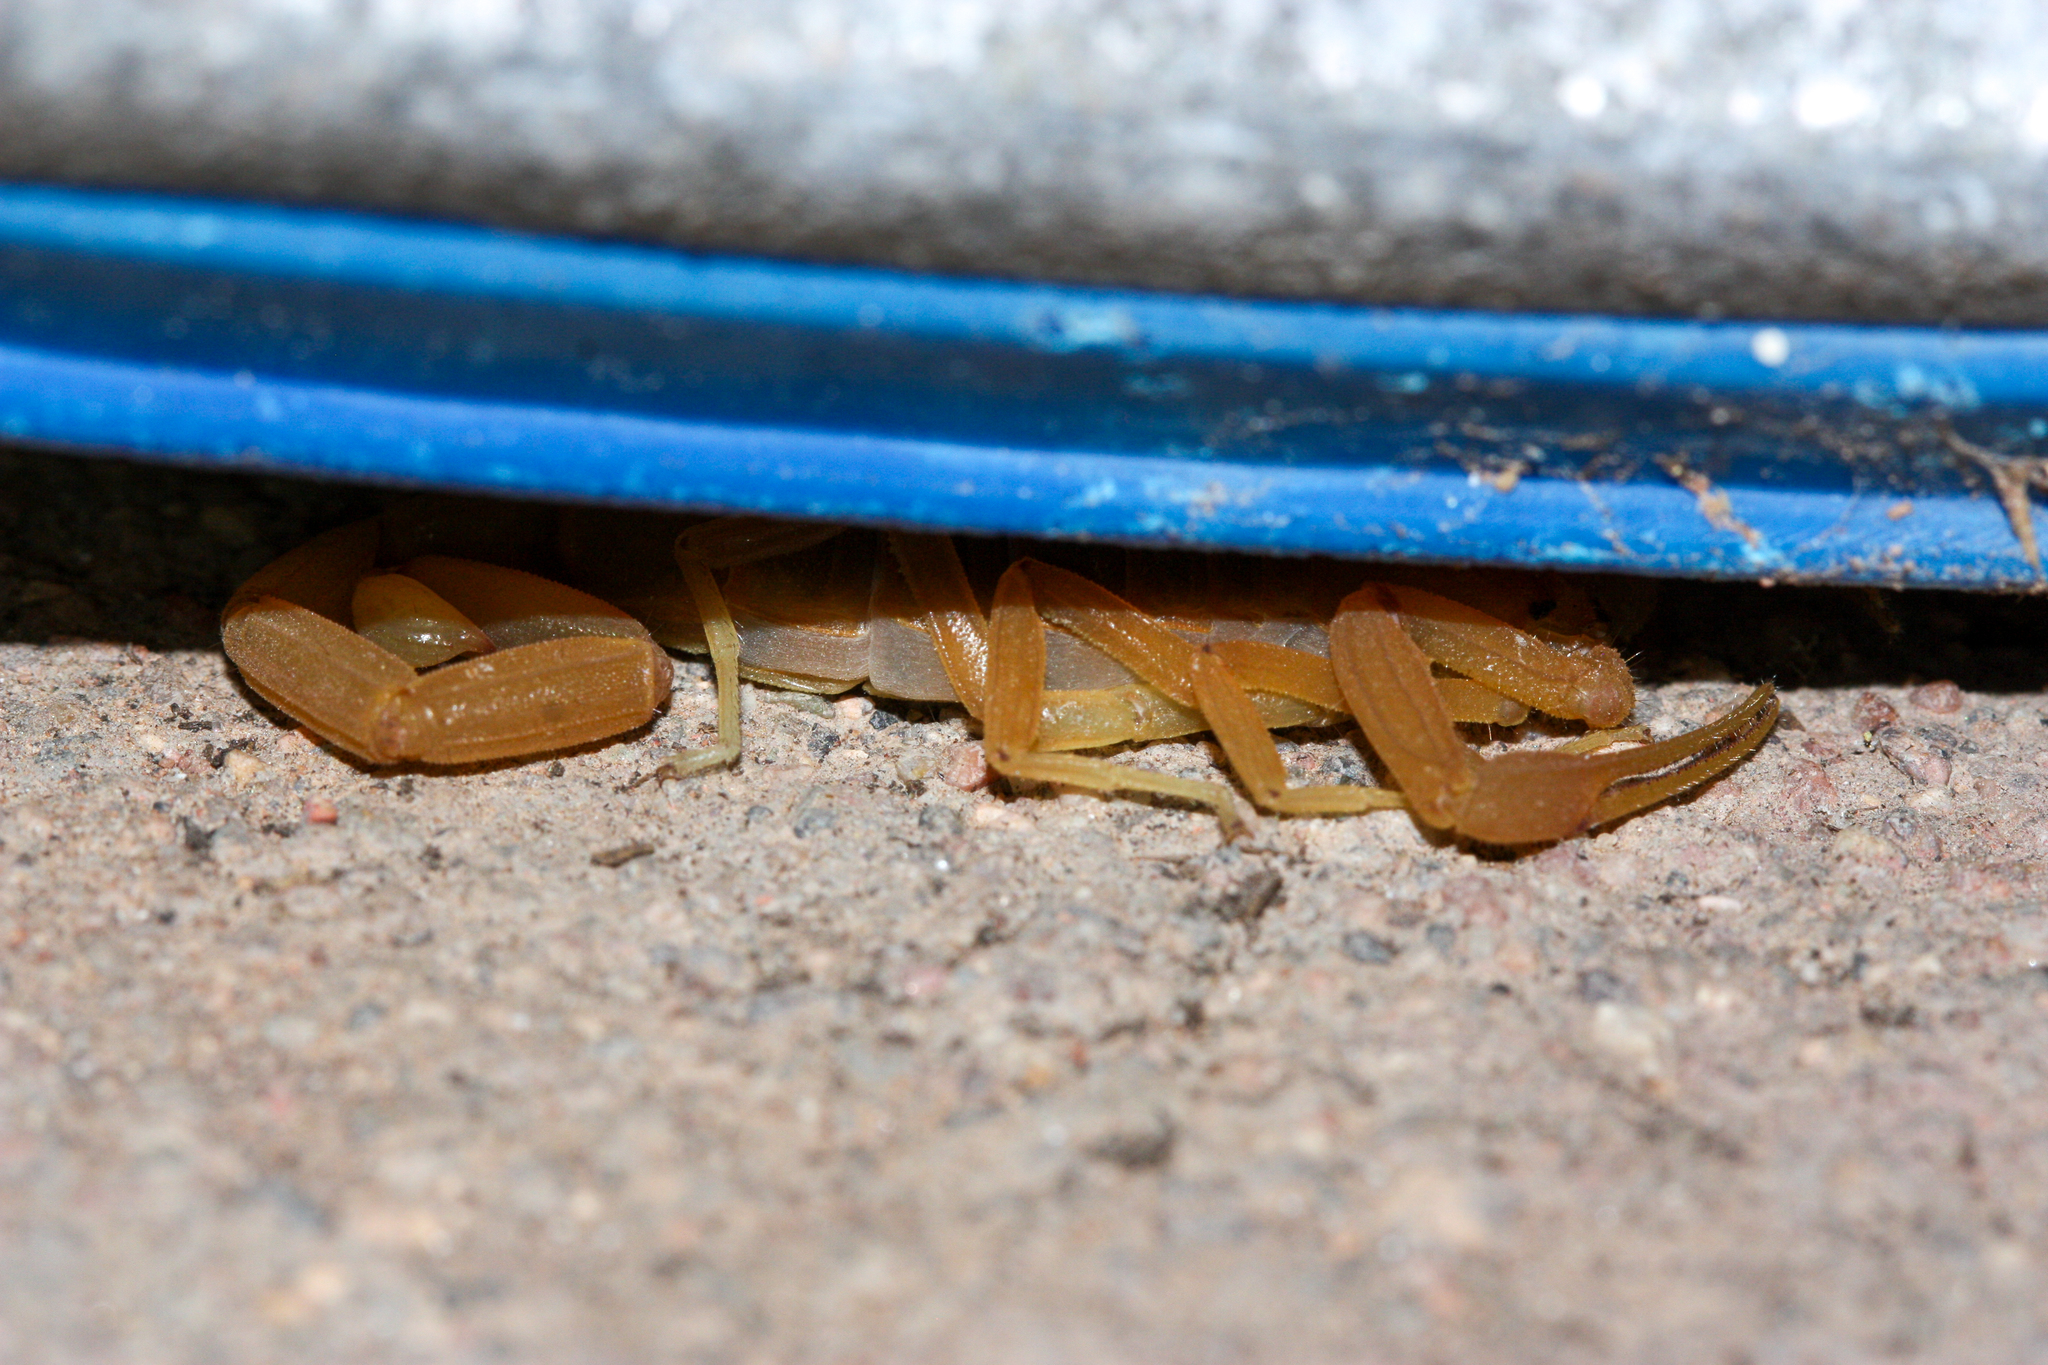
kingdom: Animalia
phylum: Arthropoda
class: Arachnida
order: Scorpiones
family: Buthidae
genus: Centruroides
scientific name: Centruroides sculpturatus
